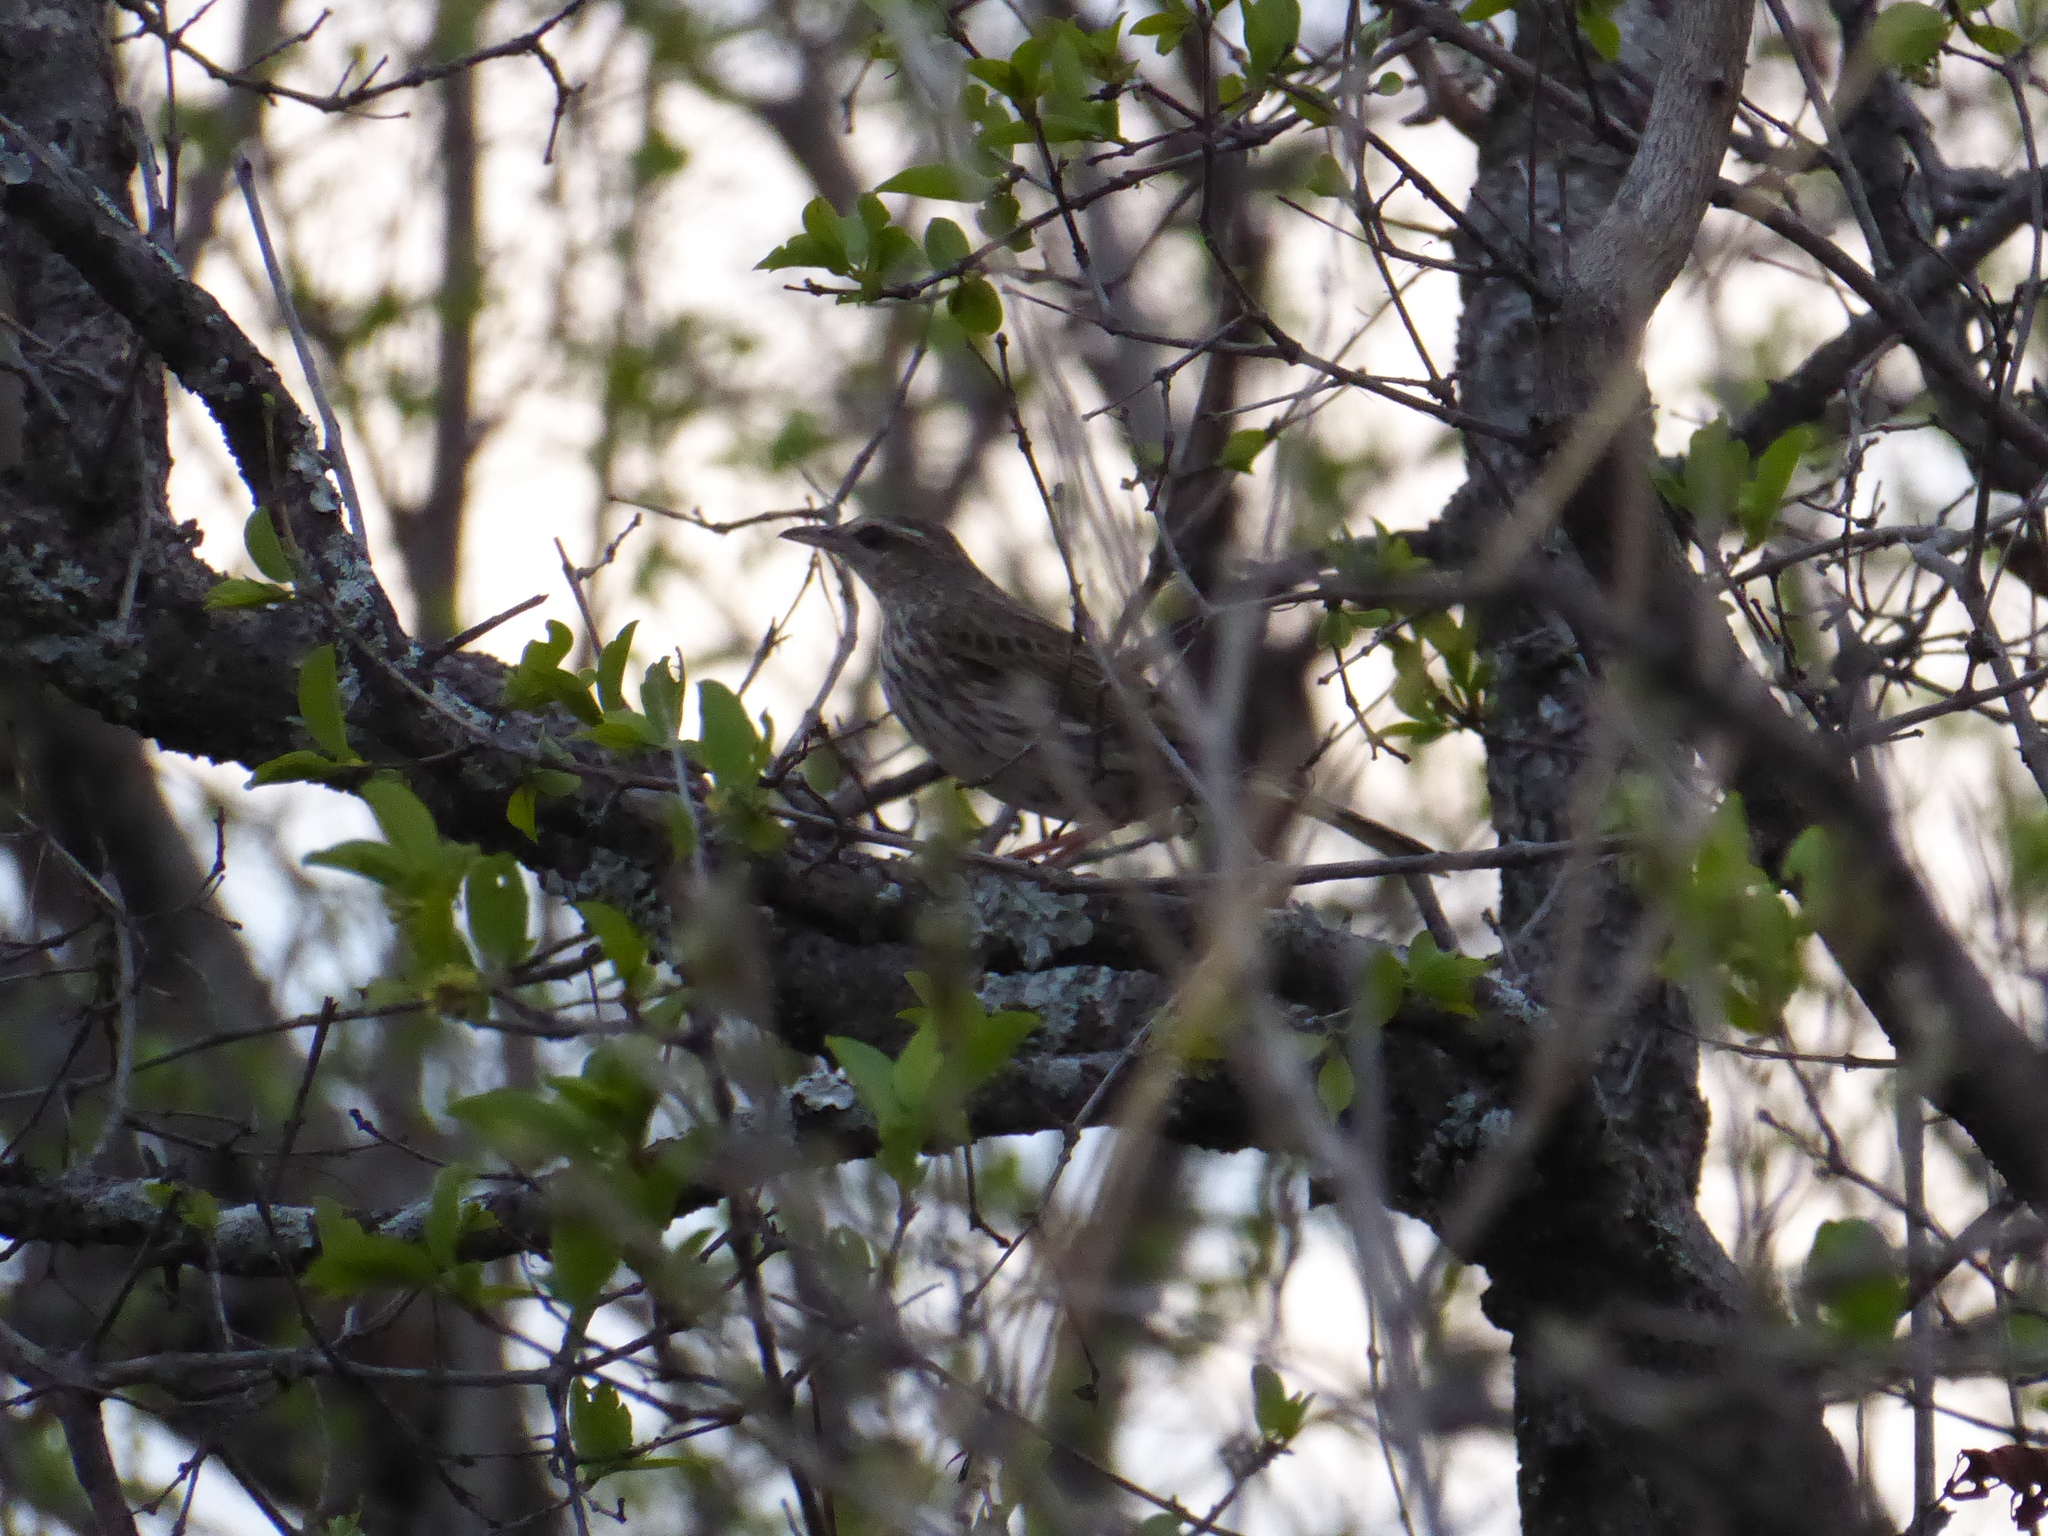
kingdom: Animalia
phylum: Chordata
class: Aves
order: Passeriformes
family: Motacillidae
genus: Anthus
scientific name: Anthus lineiventris
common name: Striped pipit
